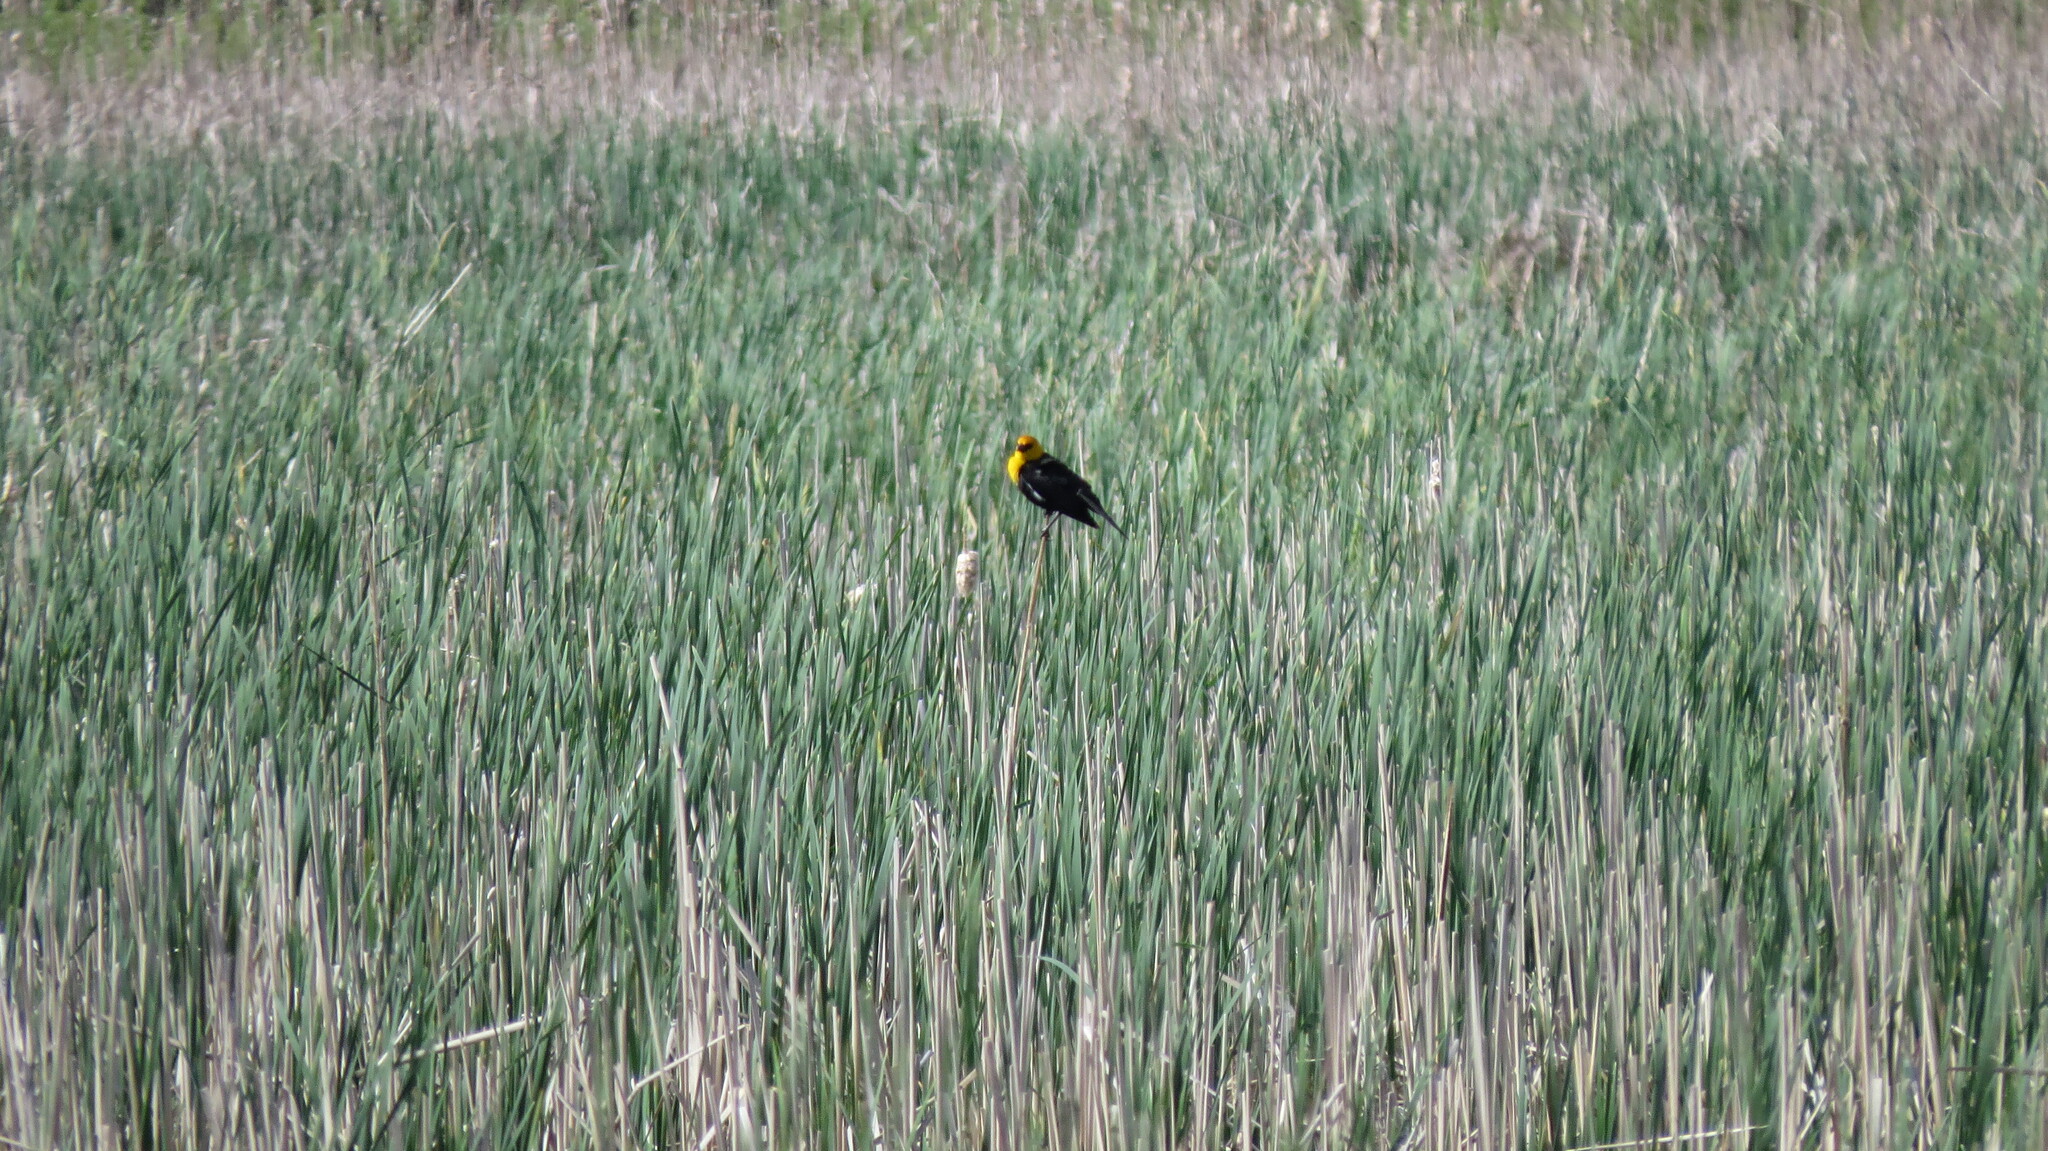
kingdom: Animalia
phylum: Chordata
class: Aves
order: Passeriformes
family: Icteridae
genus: Xanthocephalus
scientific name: Xanthocephalus xanthocephalus
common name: Yellow-headed blackbird
